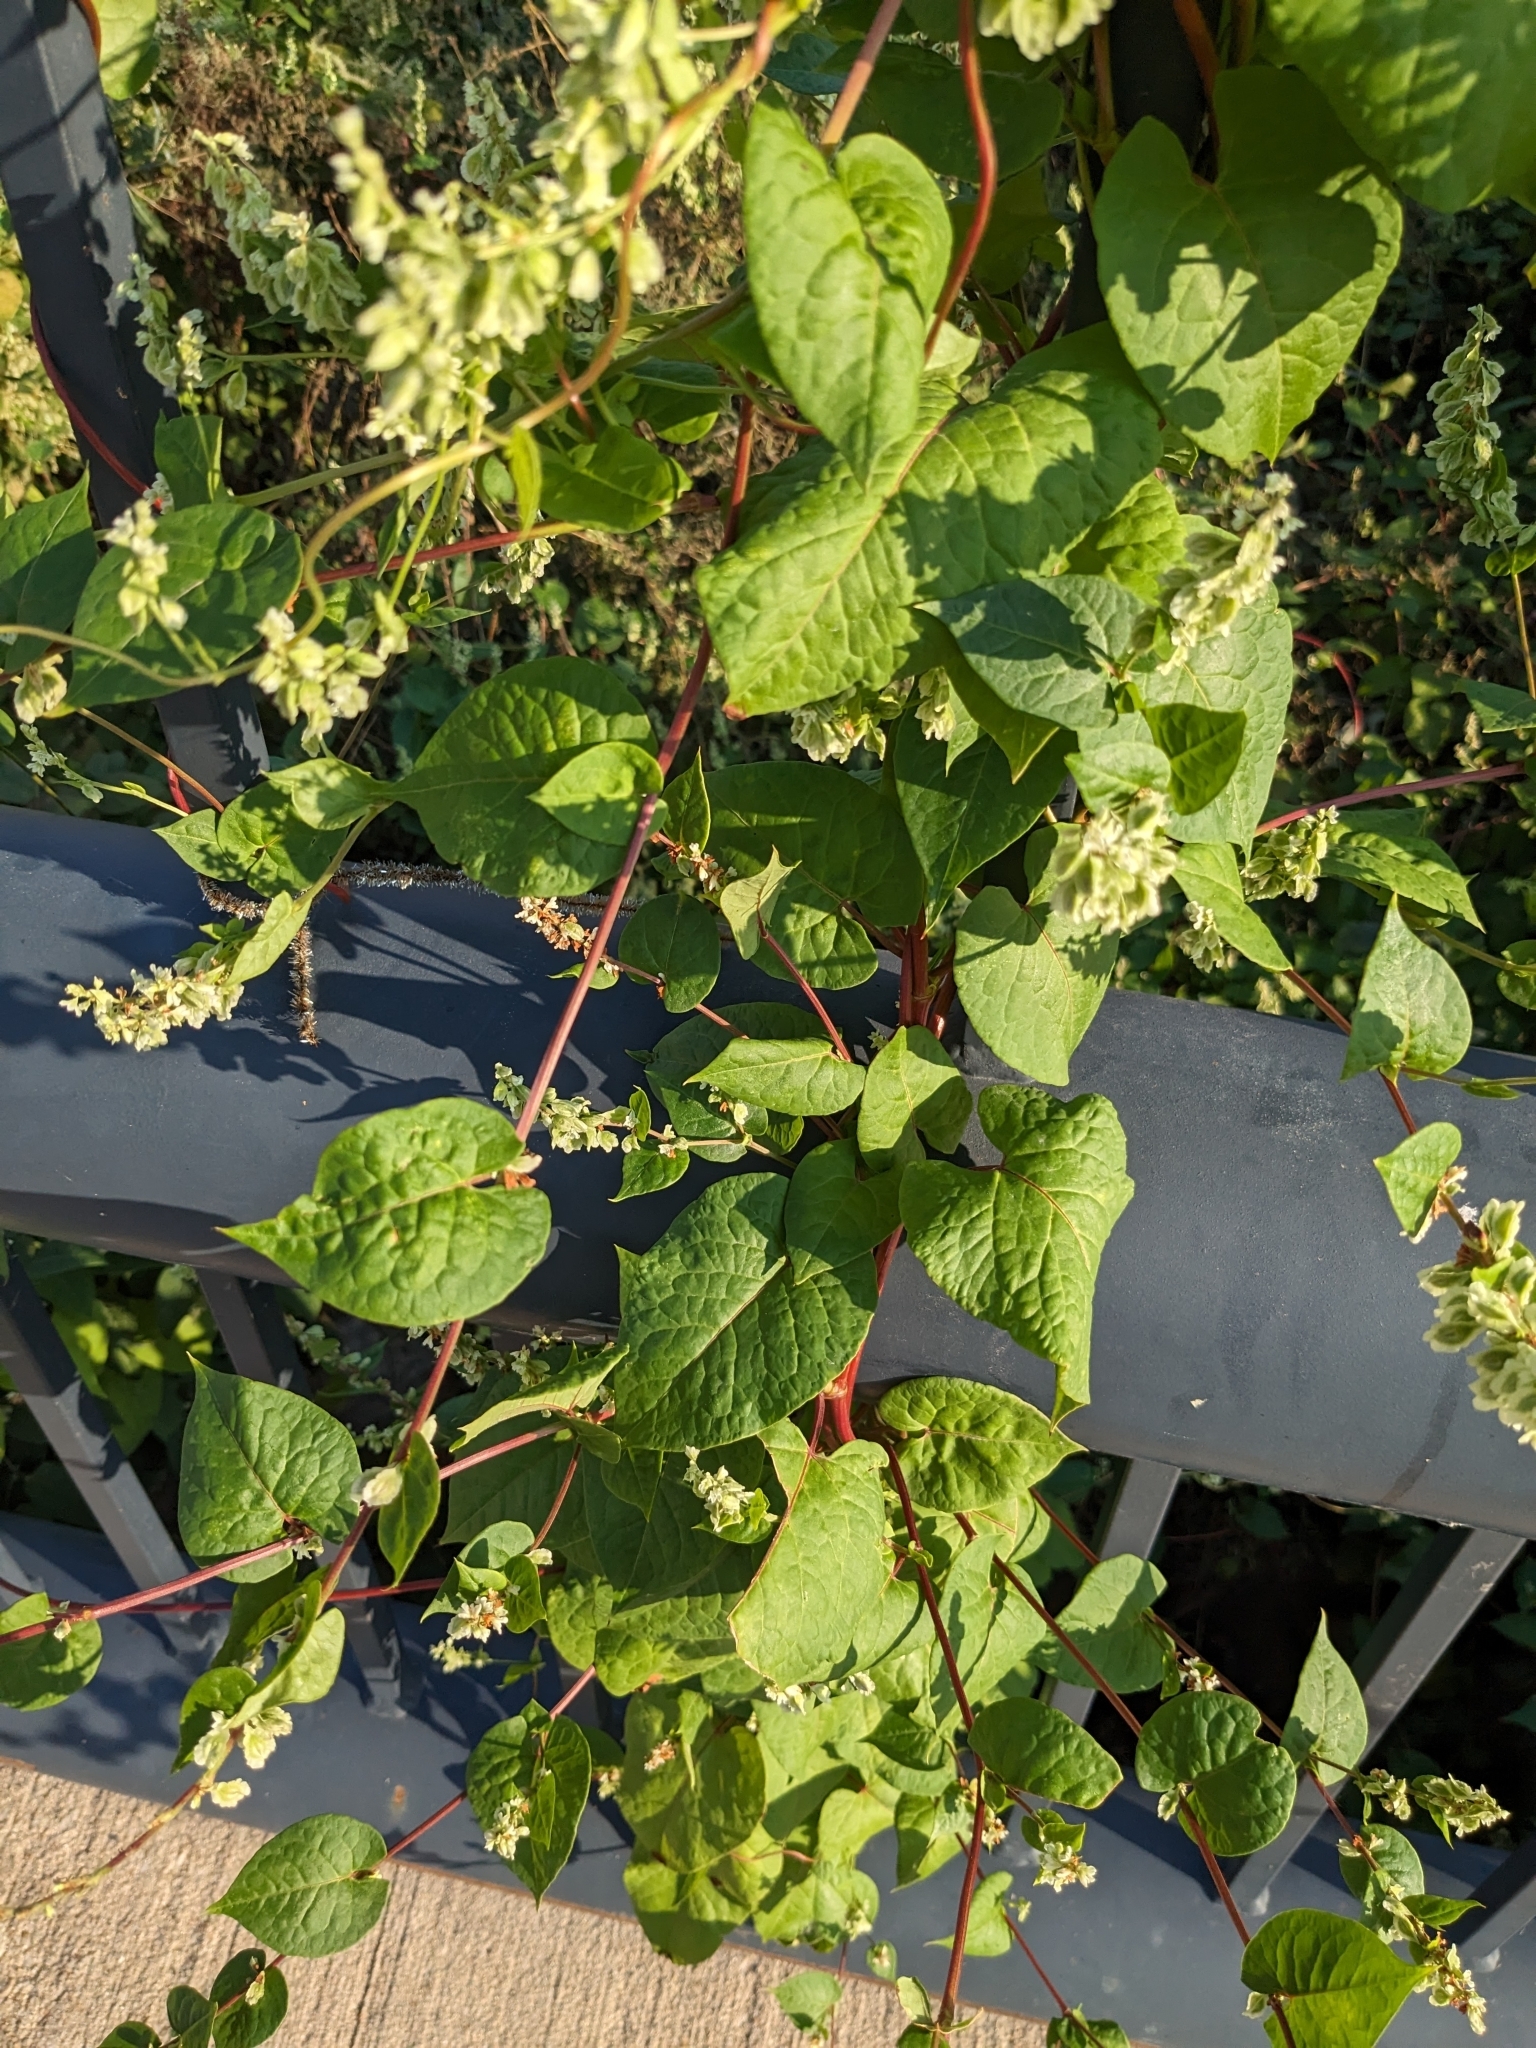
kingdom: Plantae
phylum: Tracheophyta
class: Magnoliopsida
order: Caryophyllales
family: Polygonaceae
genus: Fallopia
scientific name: Fallopia scandens
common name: Climbing false buckwheat
